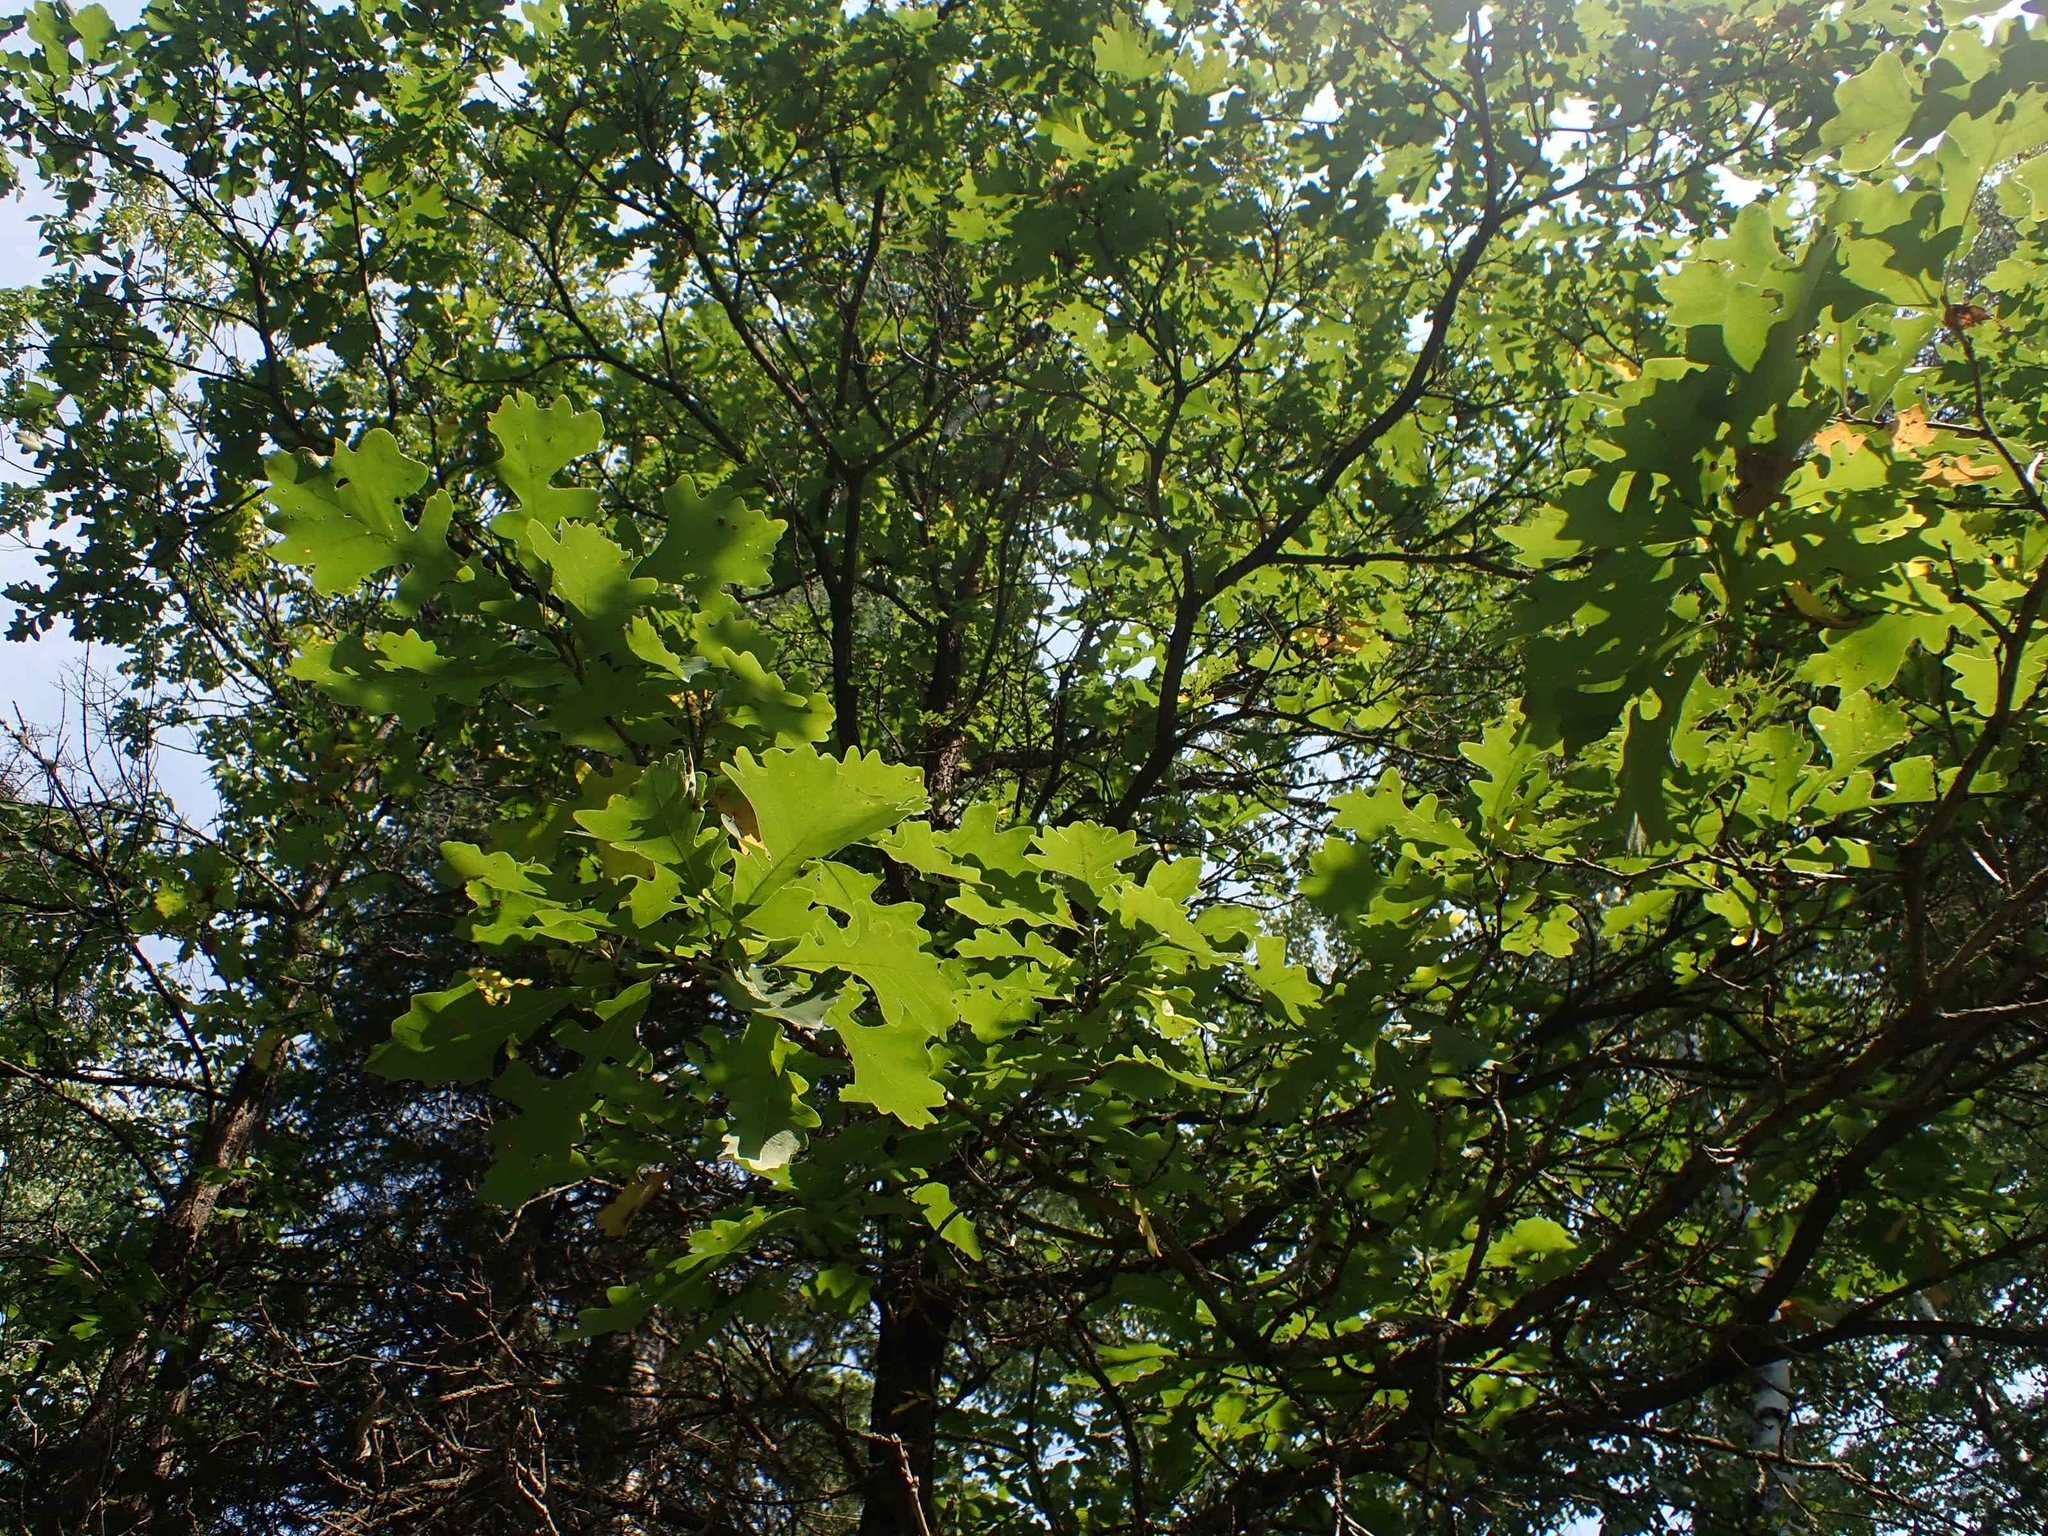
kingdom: Plantae
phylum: Tracheophyta
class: Magnoliopsida
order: Fagales
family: Fagaceae
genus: Quercus
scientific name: Quercus macrocarpa
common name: Bur oak
